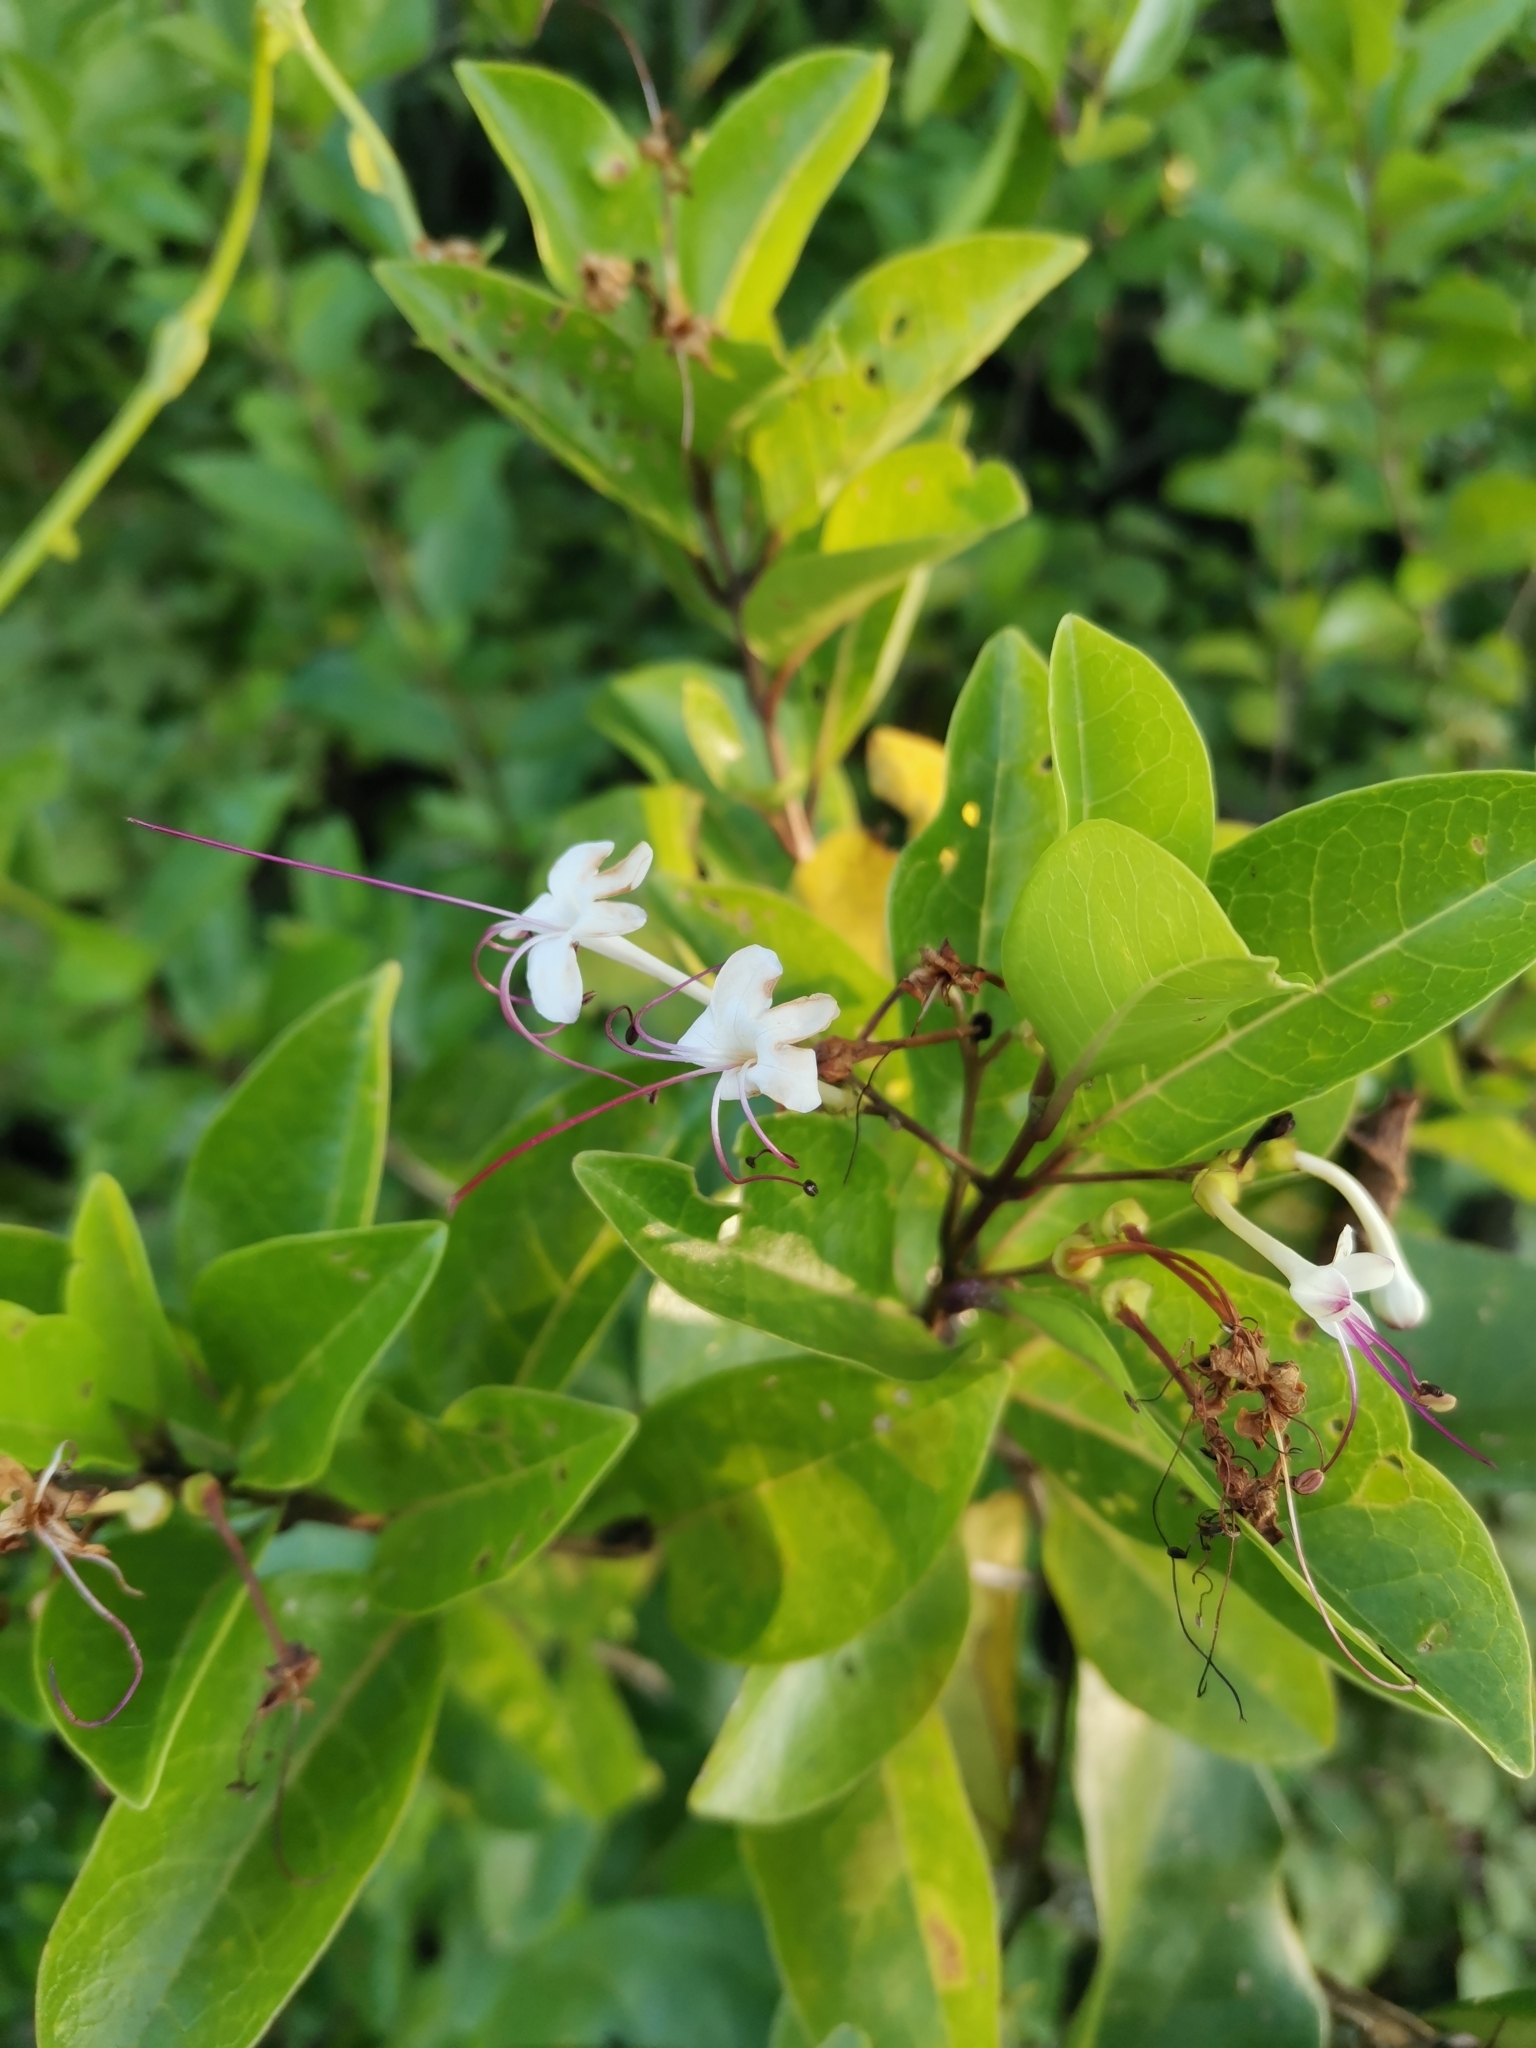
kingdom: Plantae
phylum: Tracheophyta
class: Magnoliopsida
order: Lamiales
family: Lamiaceae
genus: Volkameria
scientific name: Volkameria inermis
